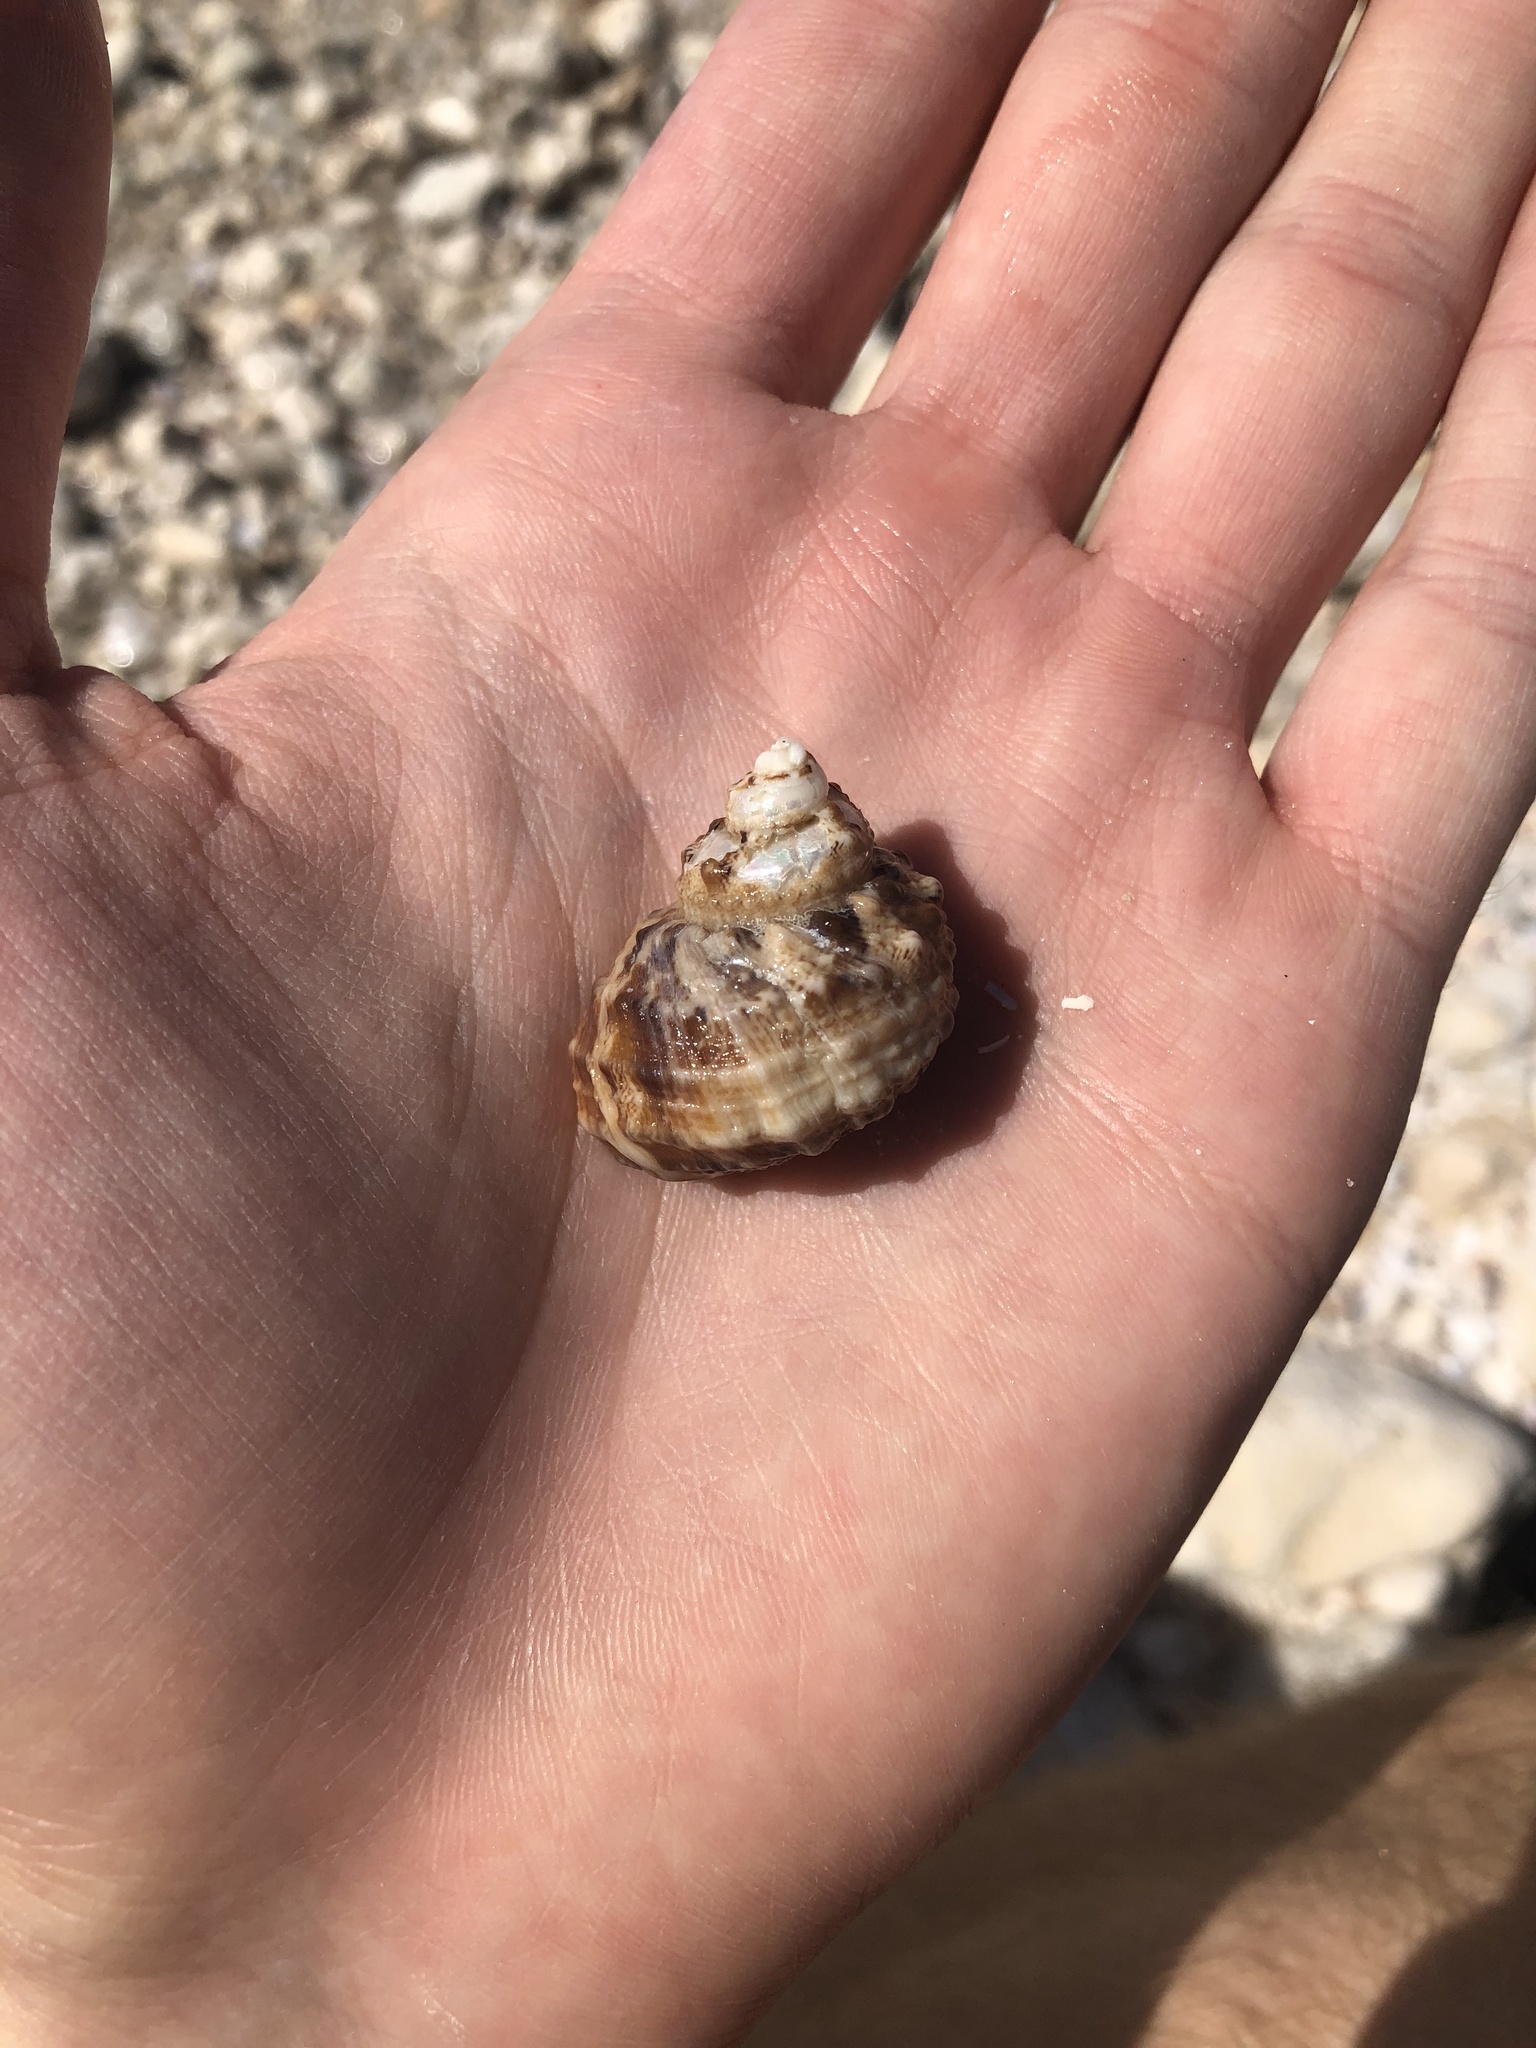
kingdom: Animalia
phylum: Mollusca
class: Gastropoda
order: Trochida
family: Turbinidae
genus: Turbo
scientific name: Turbo castanea
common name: Chestnut turban
